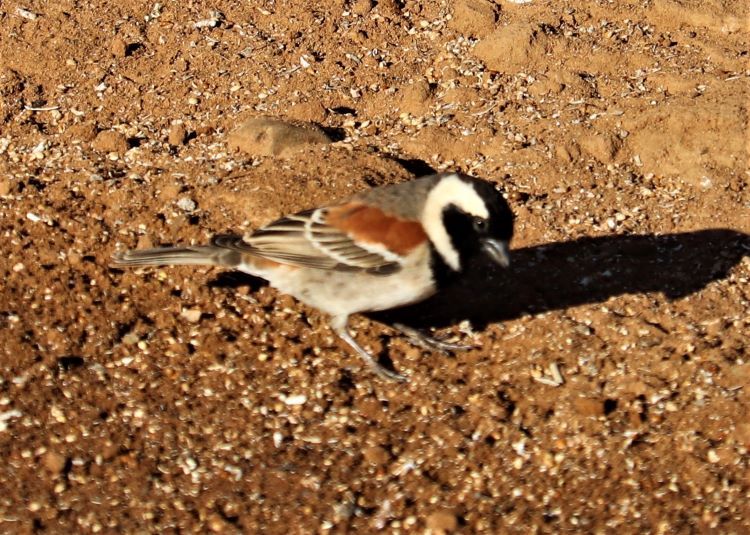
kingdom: Animalia
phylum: Chordata
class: Aves
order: Passeriformes
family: Passeridae
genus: Passer
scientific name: Passer melanurus
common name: Cape sparrow
